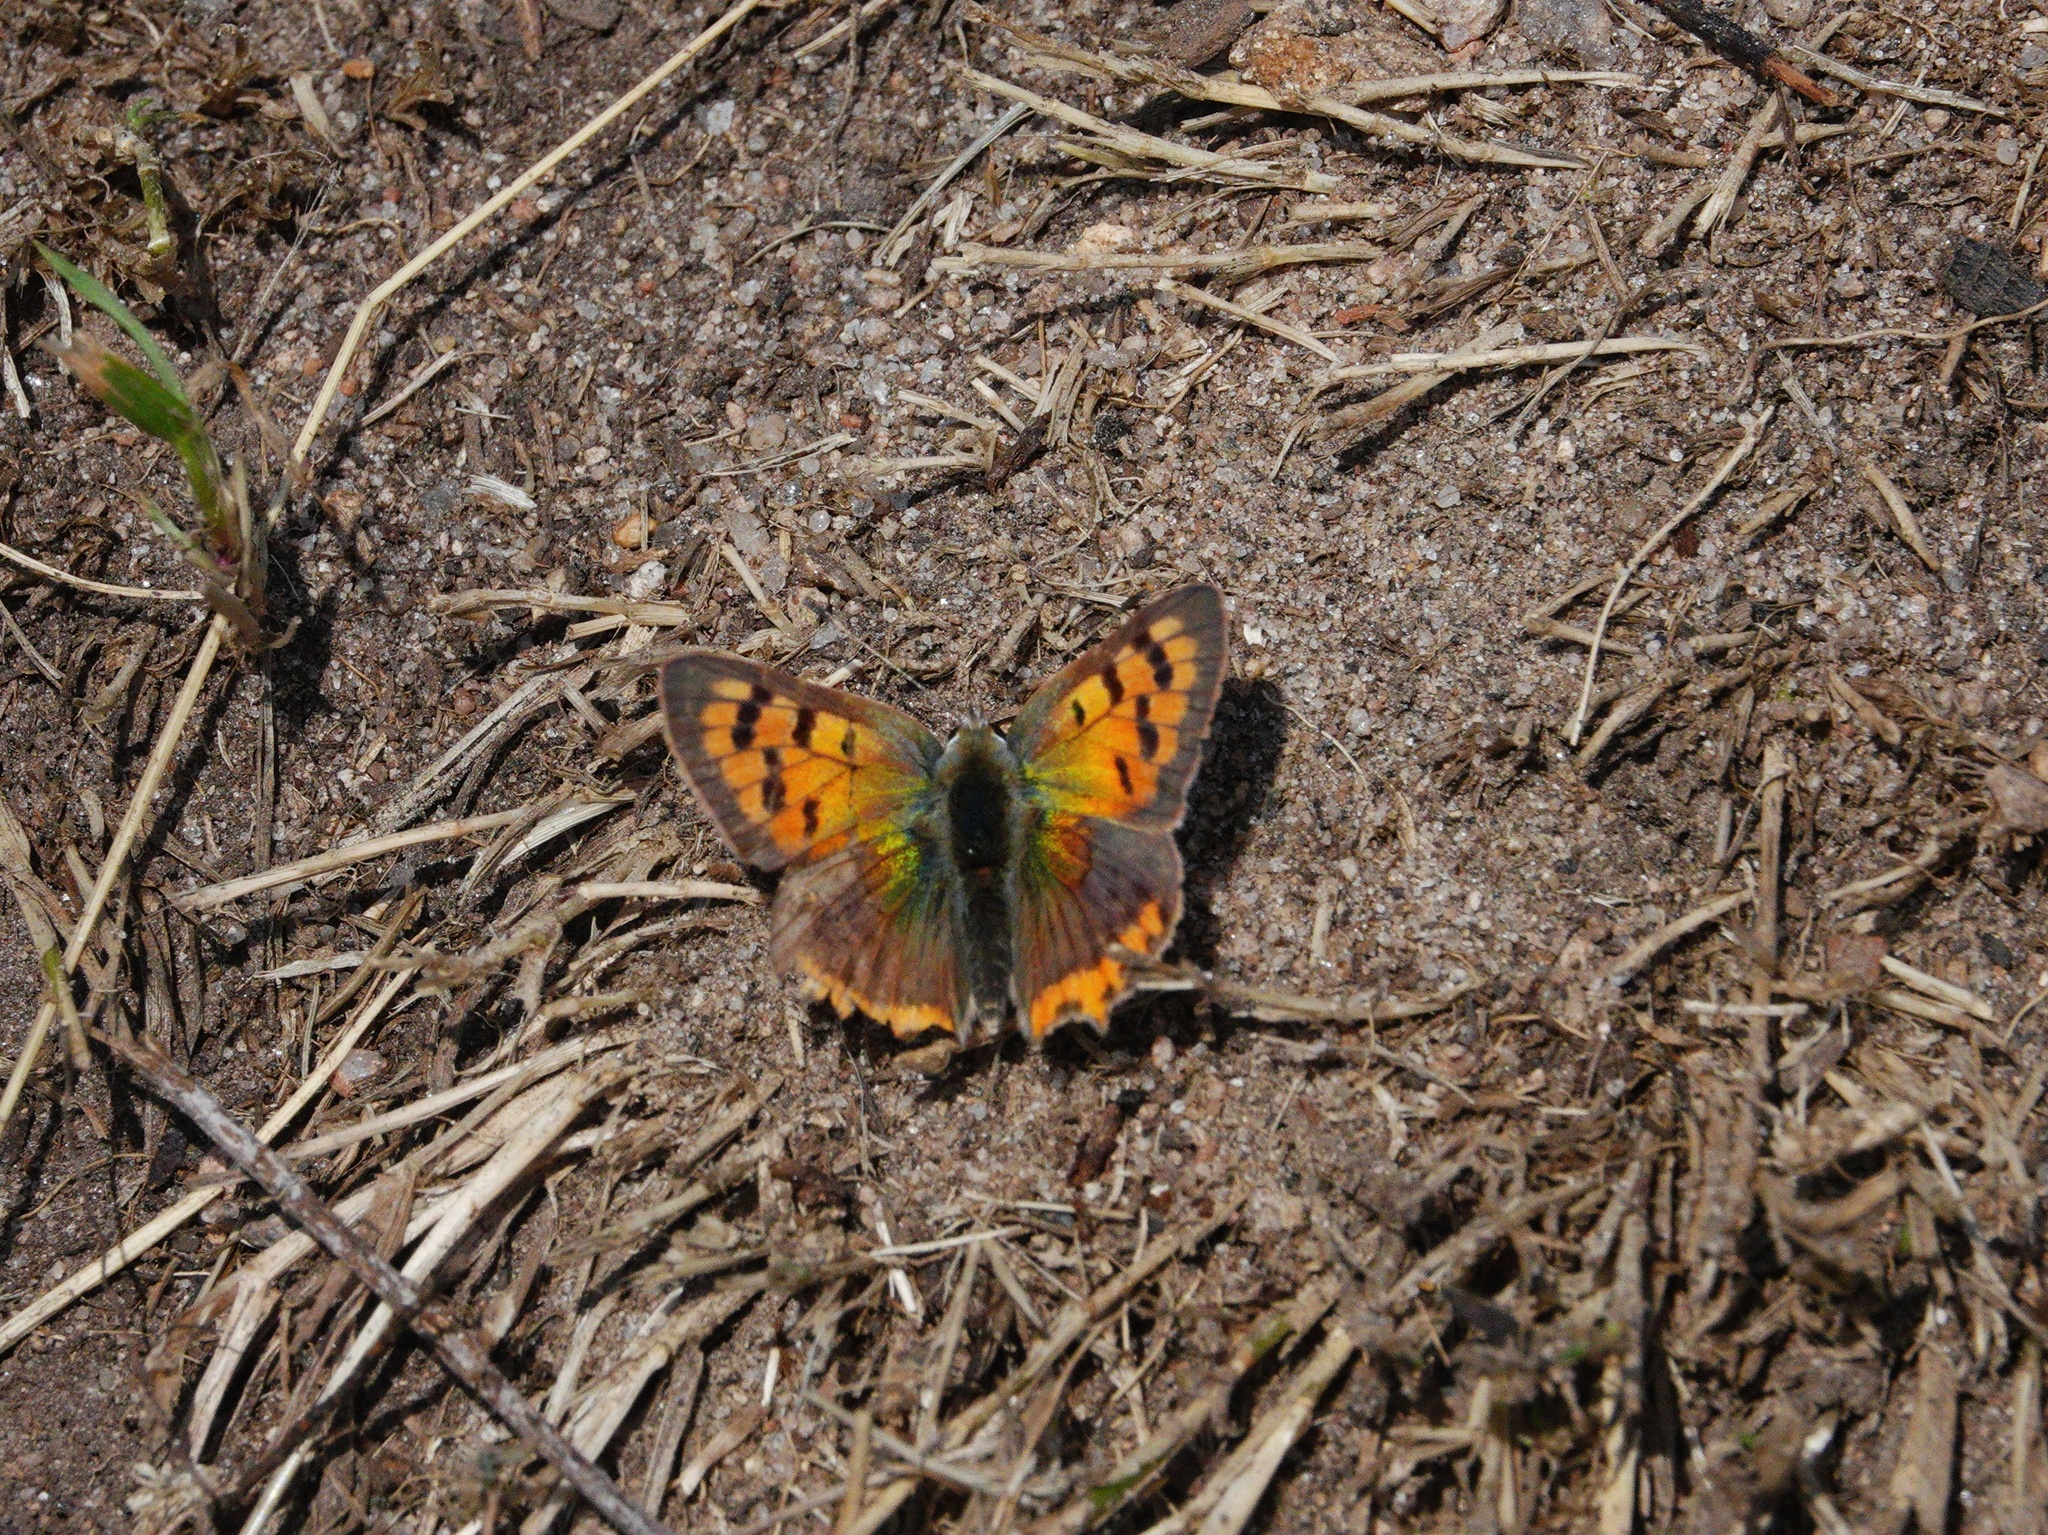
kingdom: Animalia
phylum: Arthropoda
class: Insecta
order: Lepidoptera
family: Lycaenidae
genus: Lycaena
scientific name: Lycaena phlaeas
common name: Small copper
